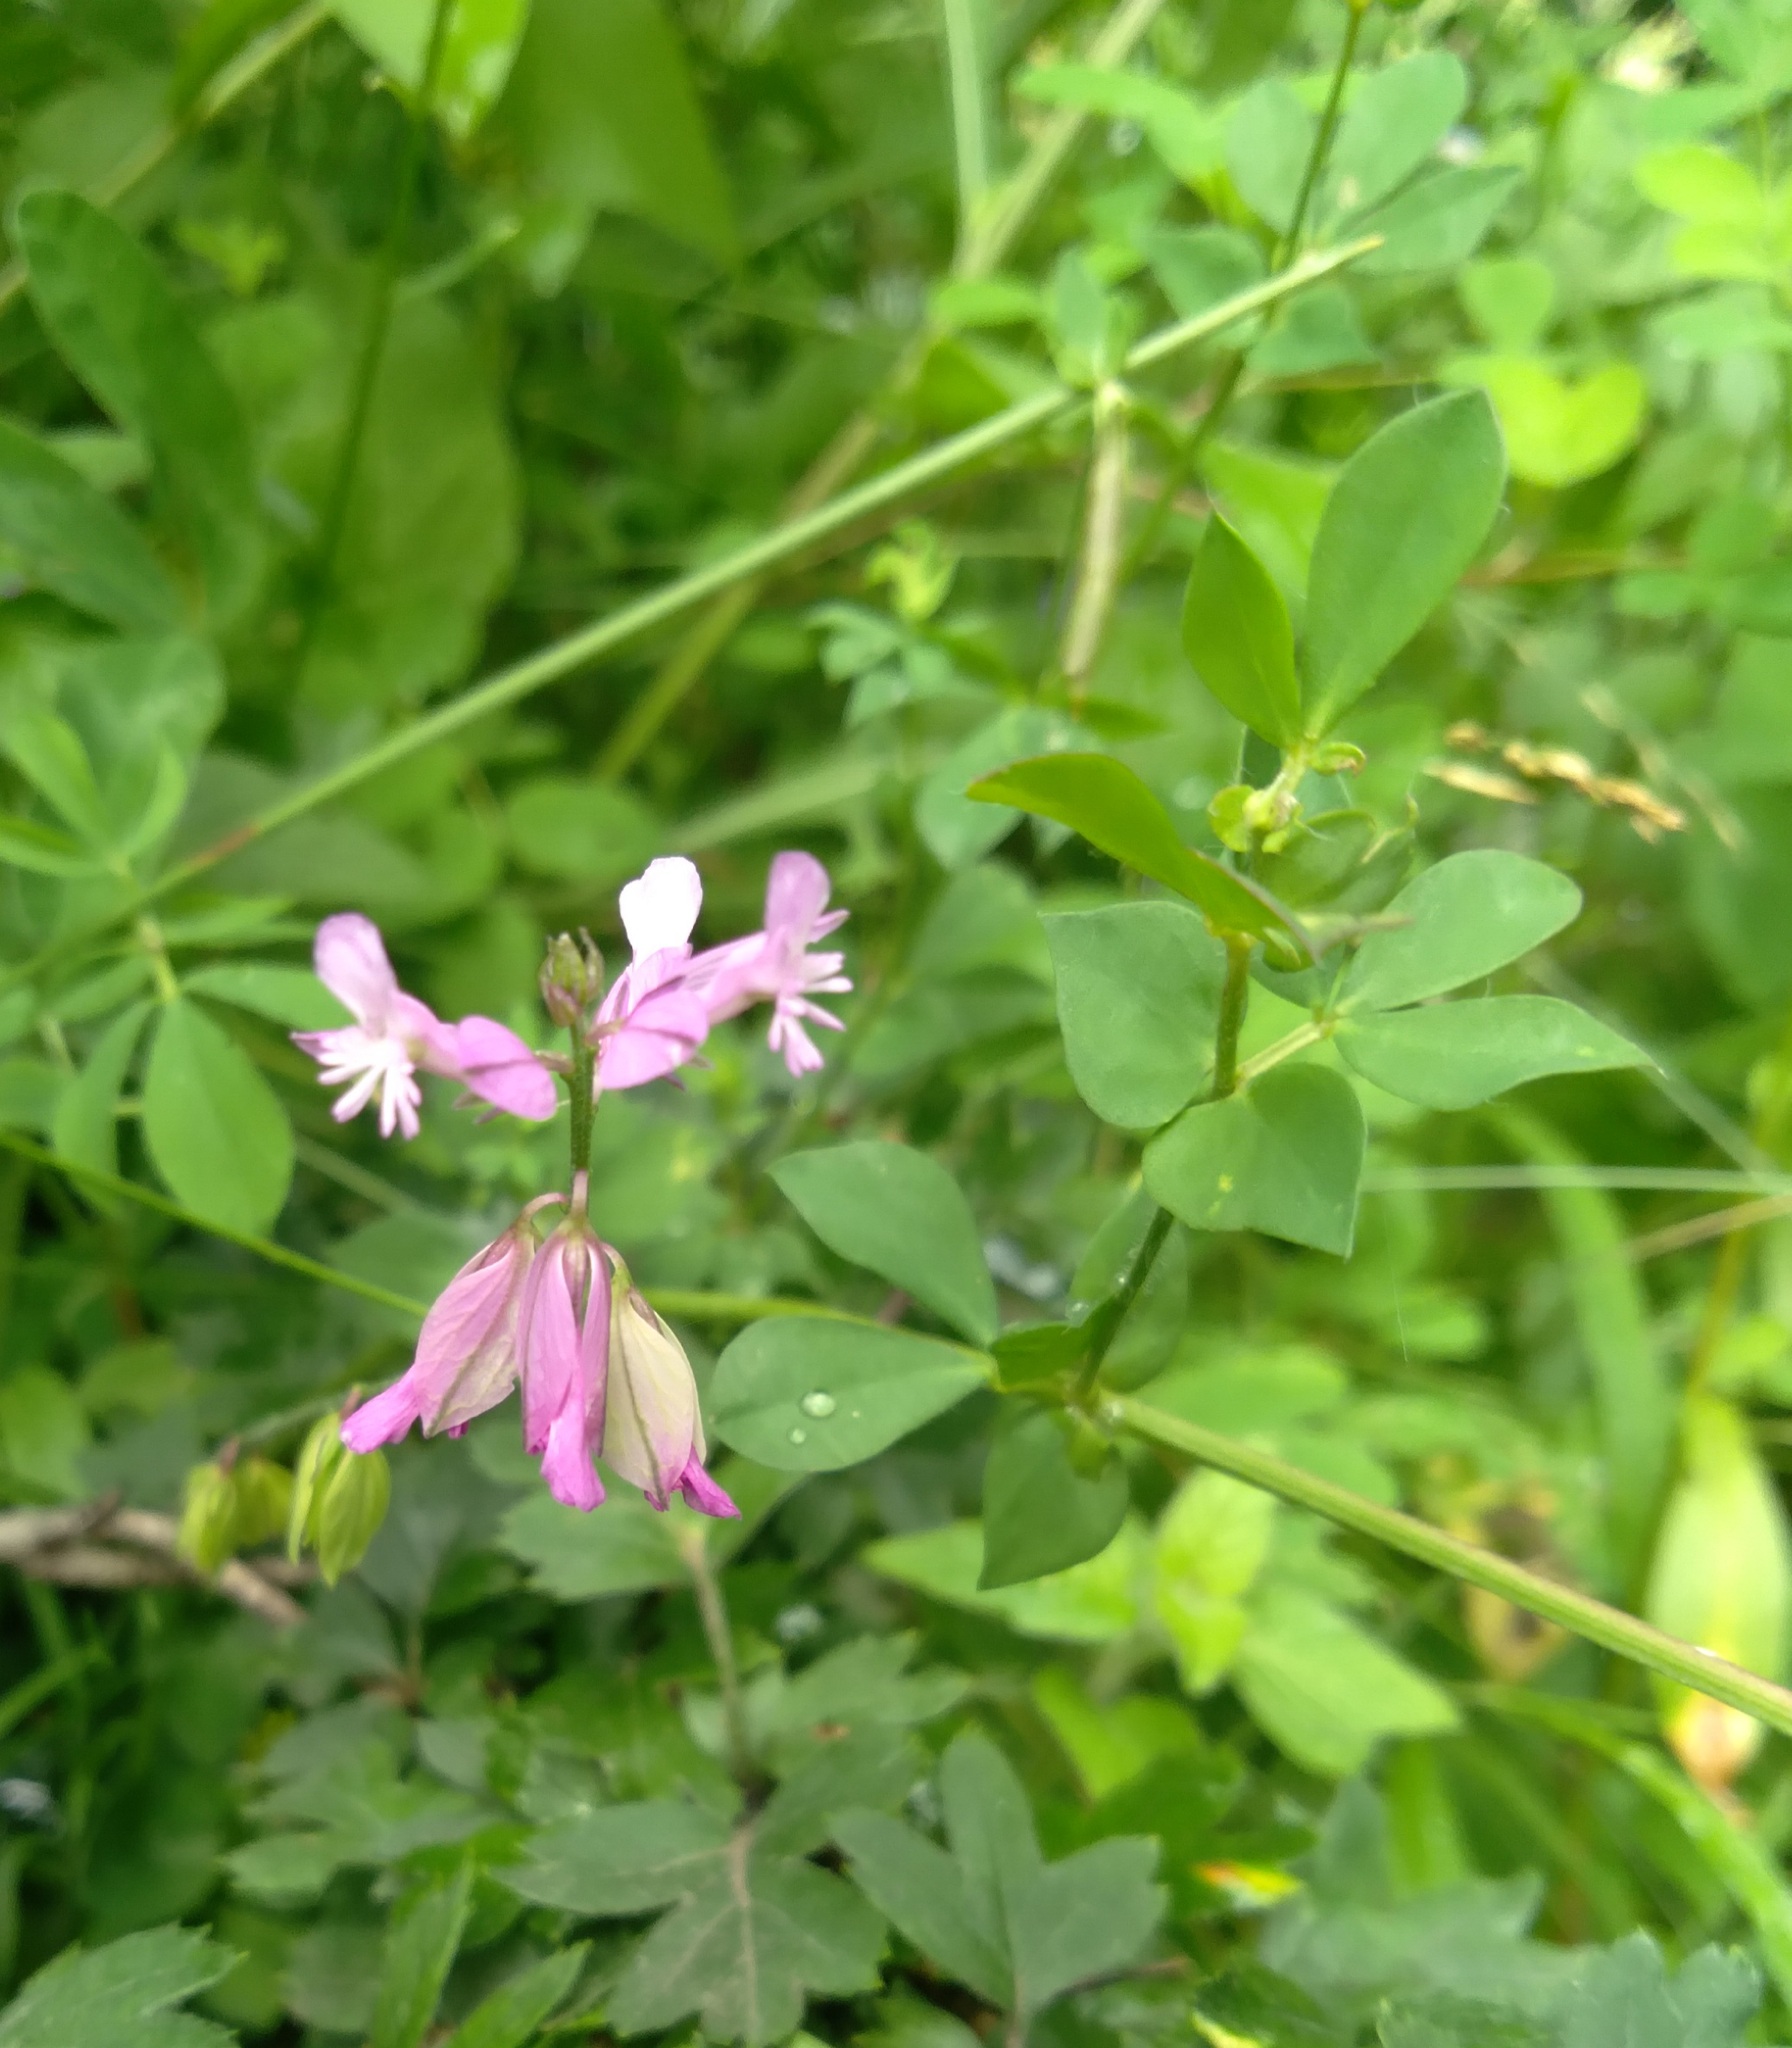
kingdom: Plantae
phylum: Tracheophyta
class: Magnoliopsida
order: Fabales
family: Polygalaceae
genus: Polygala
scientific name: Polygala major
